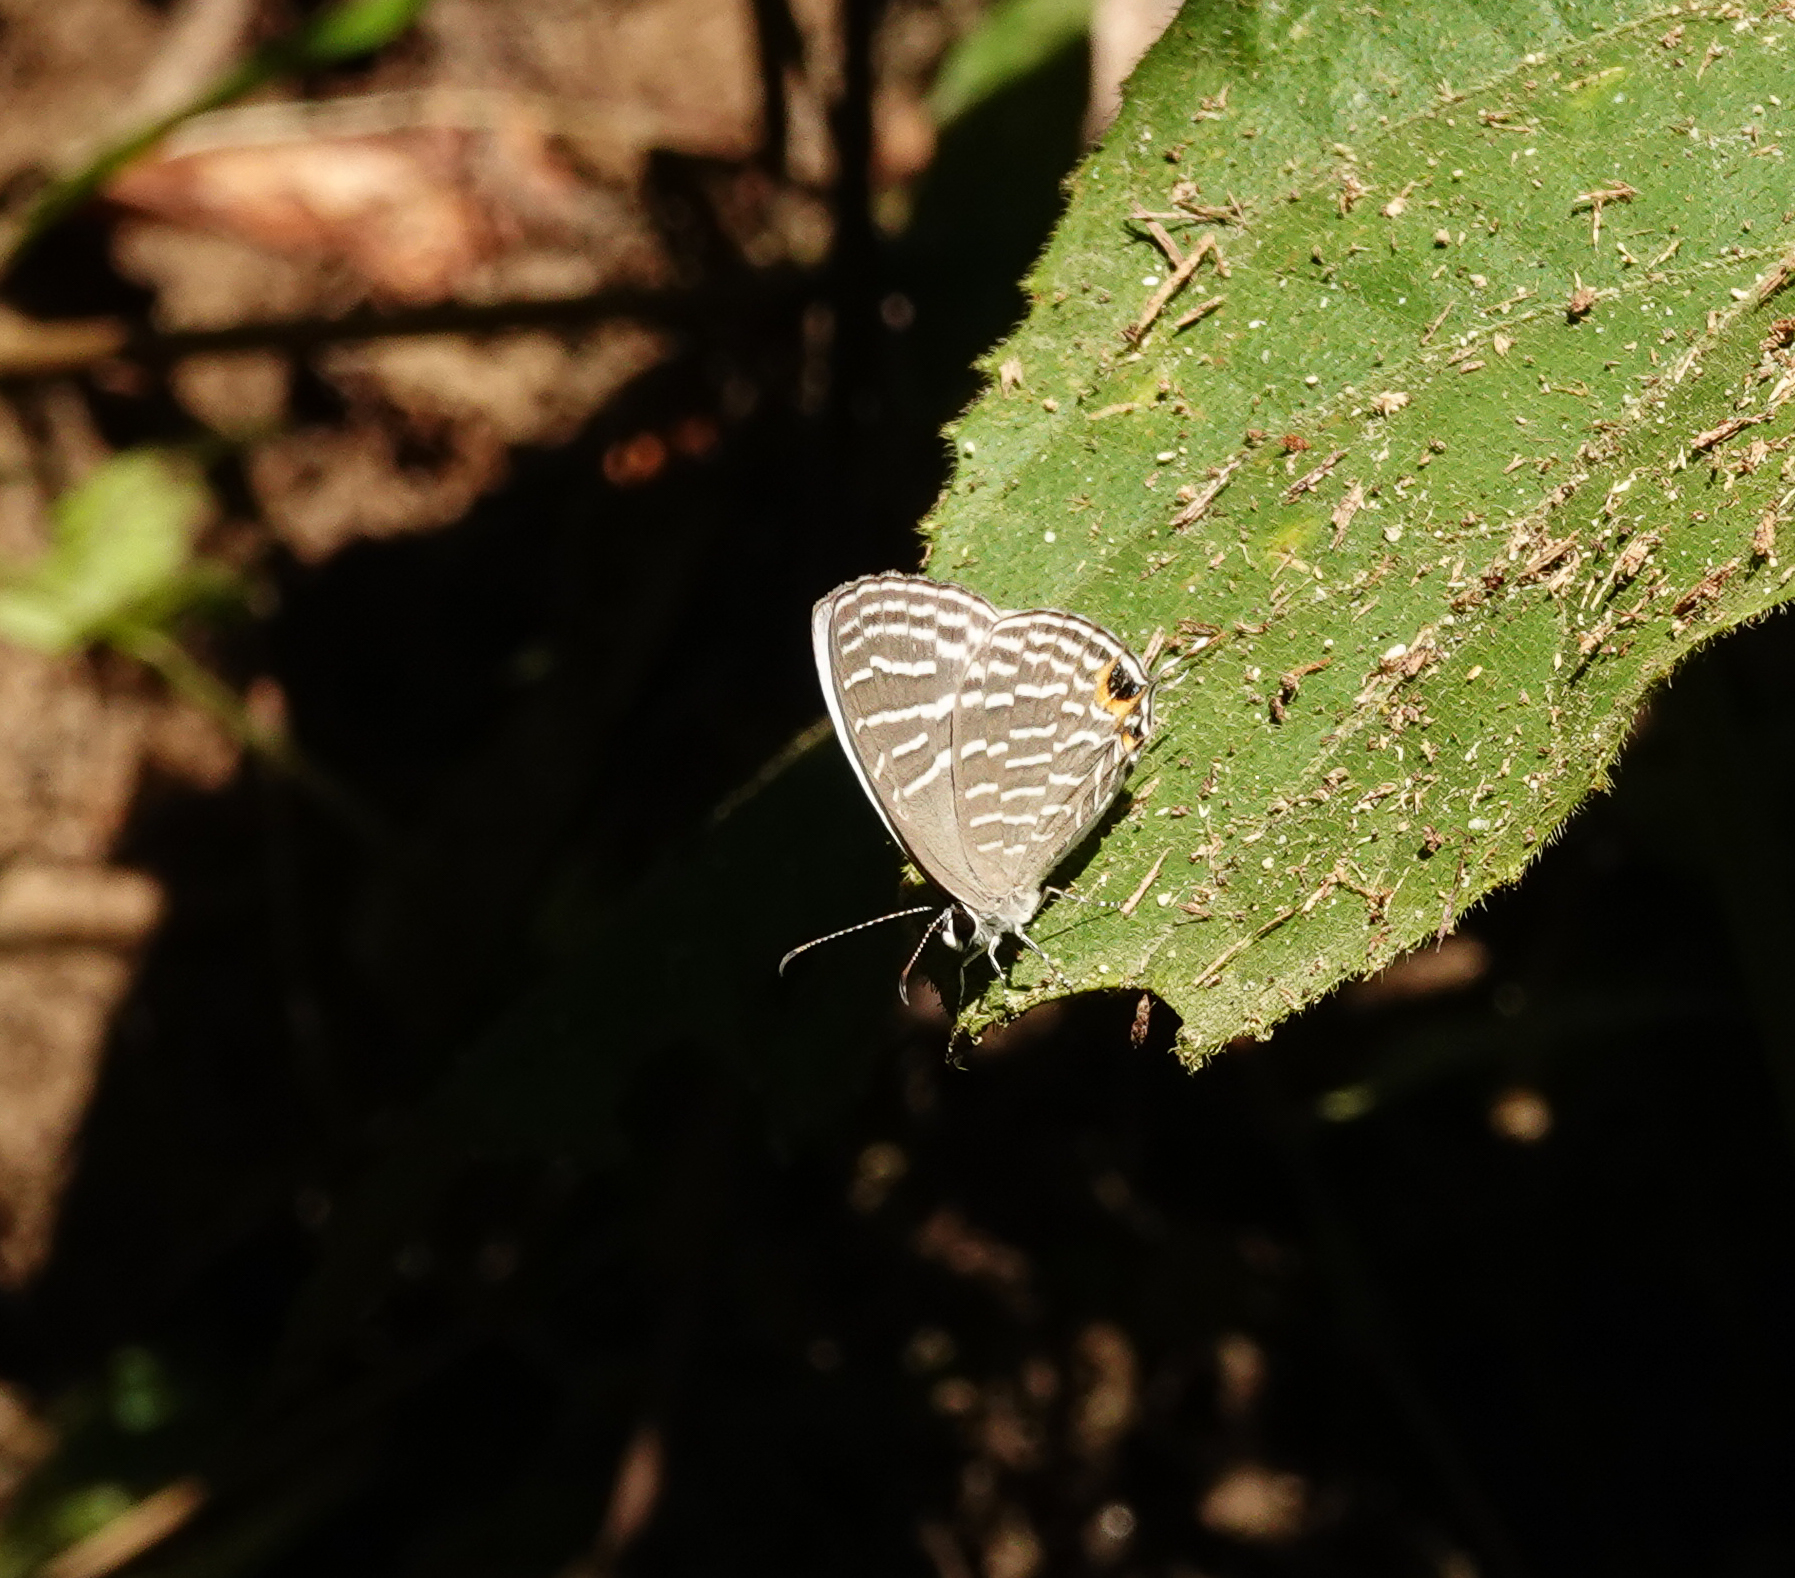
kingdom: Animalia
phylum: Arthropoda
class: Insecta
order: Lepidoptera
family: Lycaenidae
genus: Jamides
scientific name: Jamides alecto
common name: Metallic cerulean
